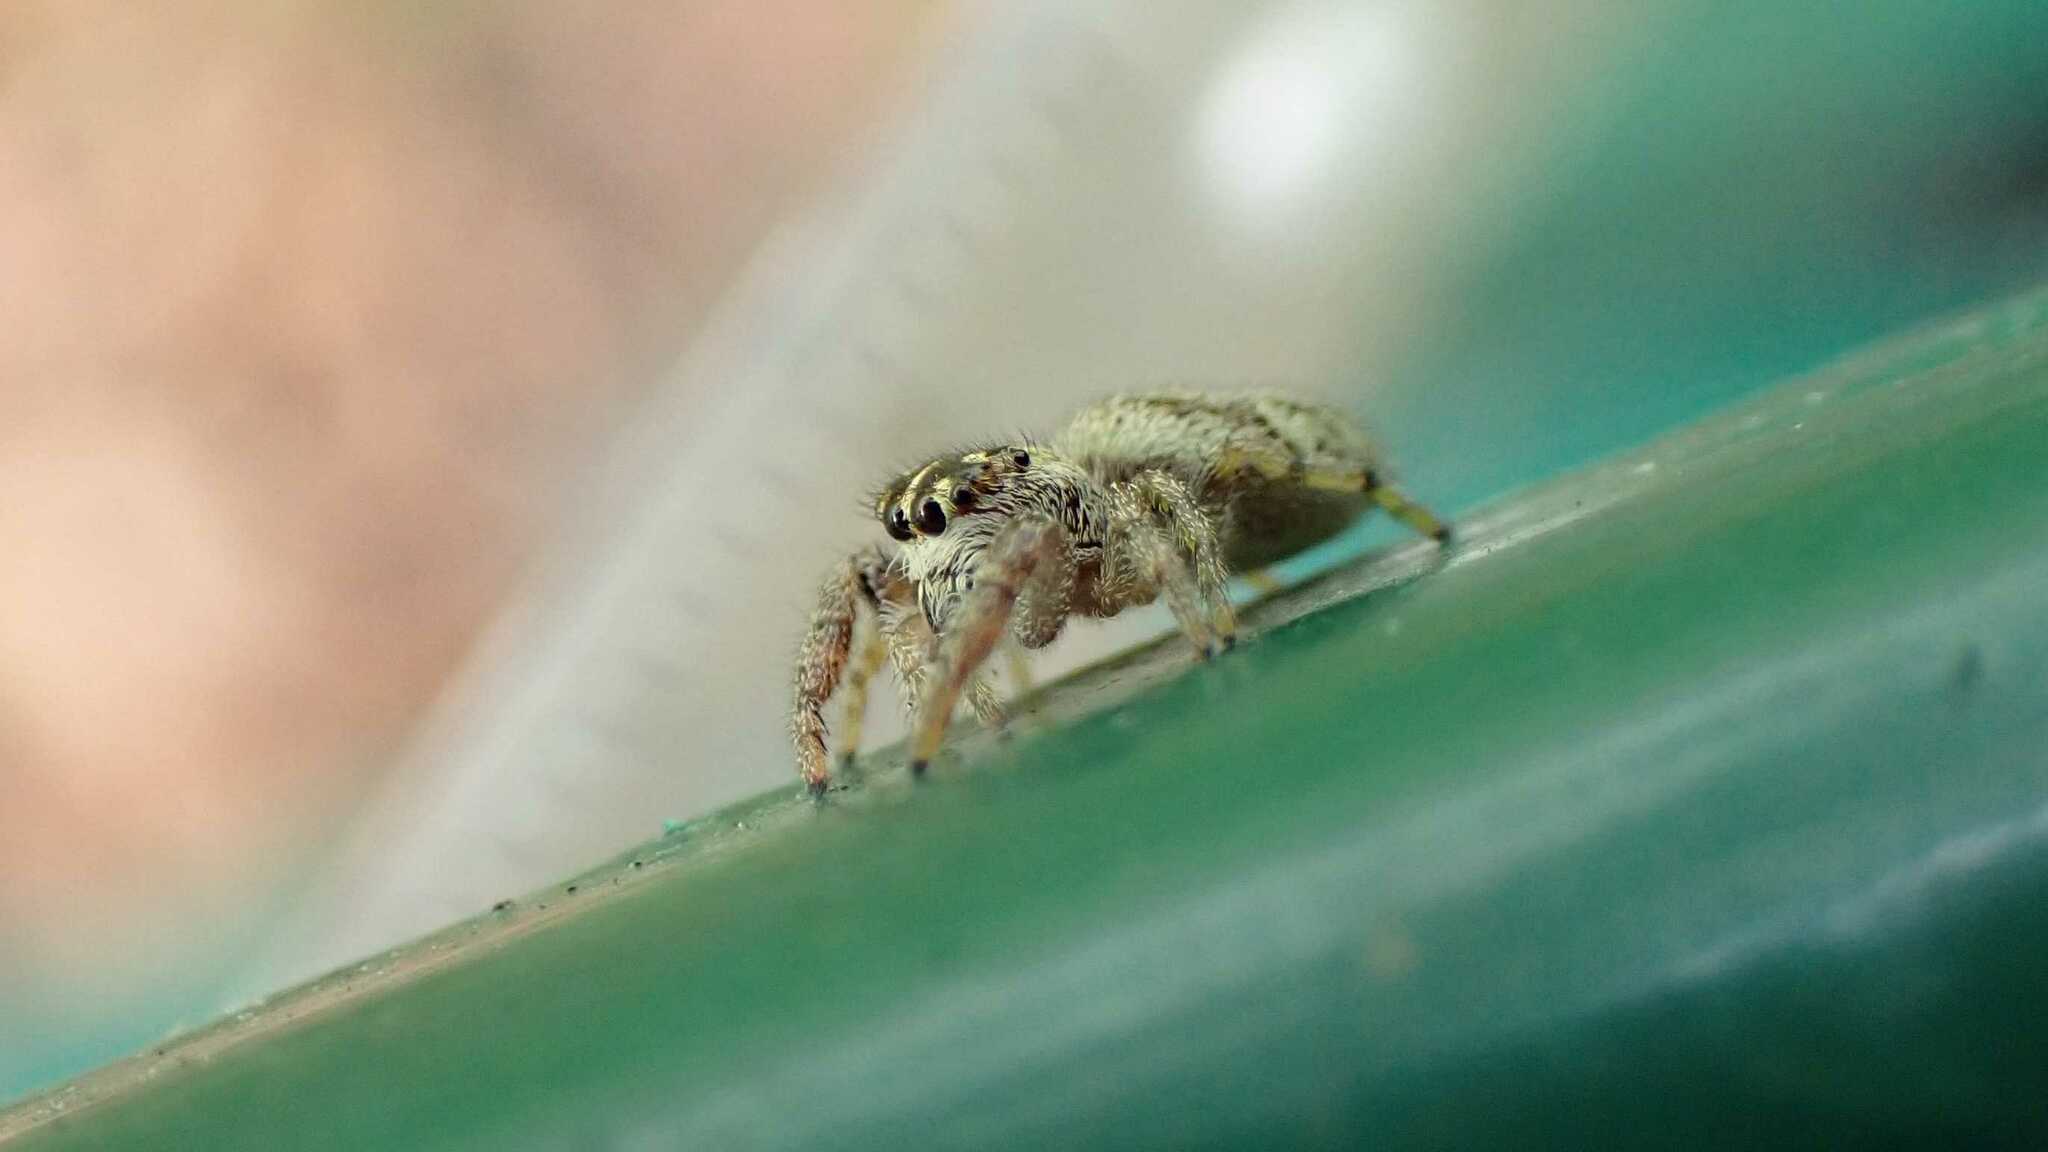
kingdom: Animalia
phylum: Arthropoda
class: Arachnida
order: Araneae
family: Salticidae
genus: Macaroeris
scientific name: Macaroeris nidicolens
